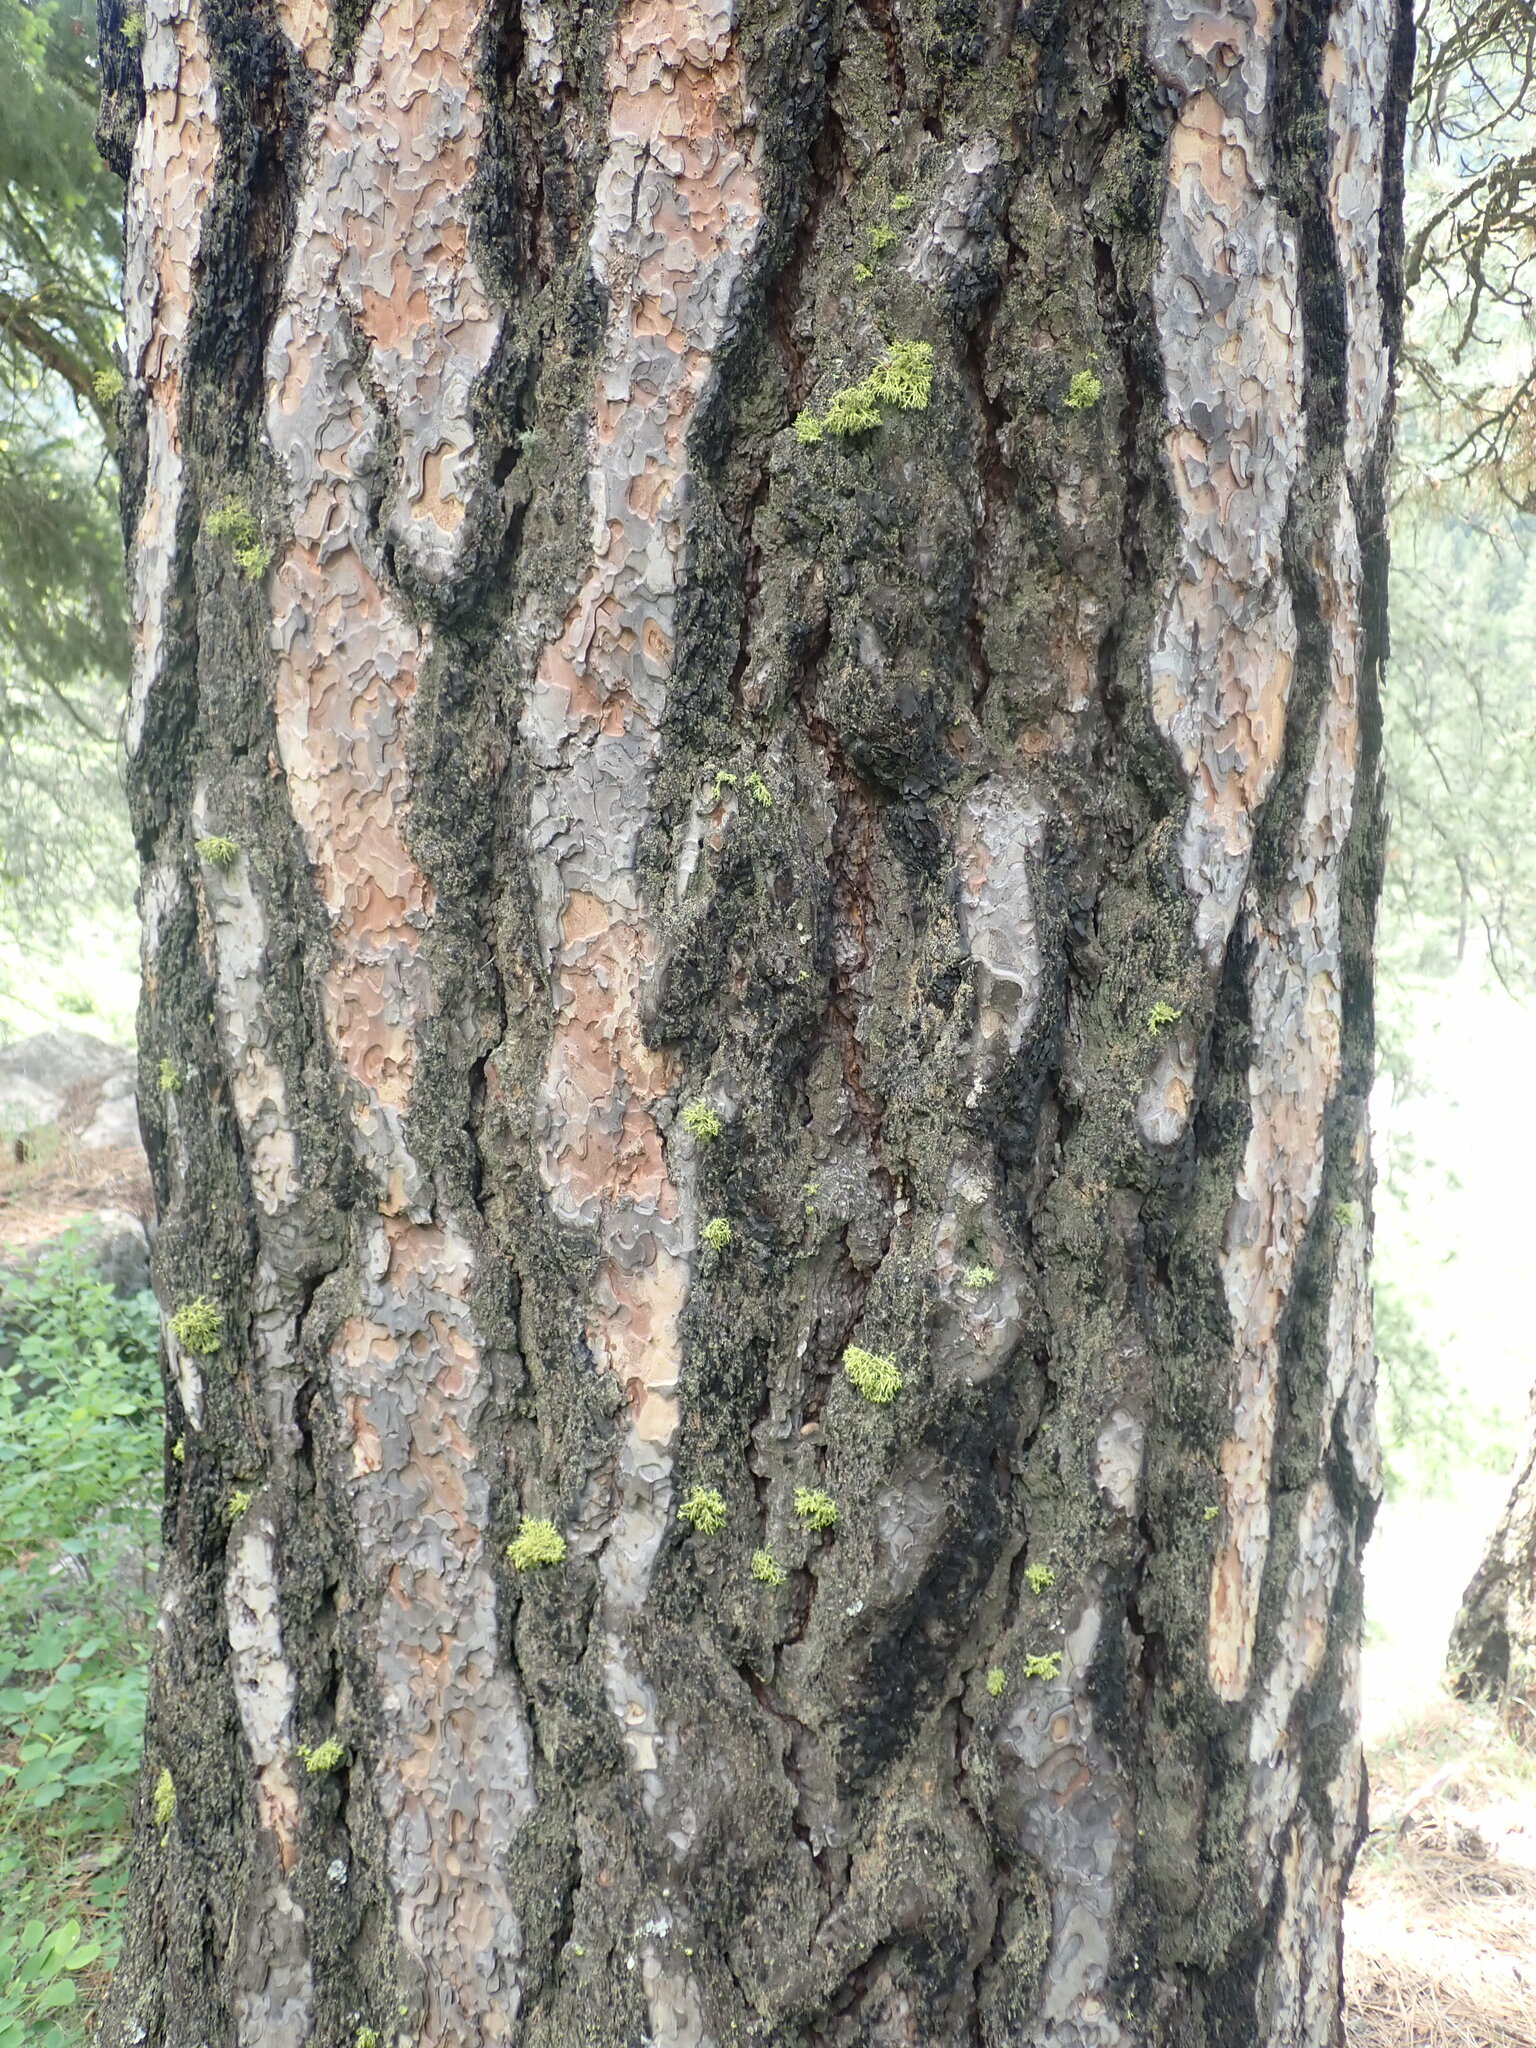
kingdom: Plantae
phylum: Tracheophyta
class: Pinopsida
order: Pinales
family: Pinaceae
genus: Pinus
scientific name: Pinus ponderosa
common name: Western yellow-pine
